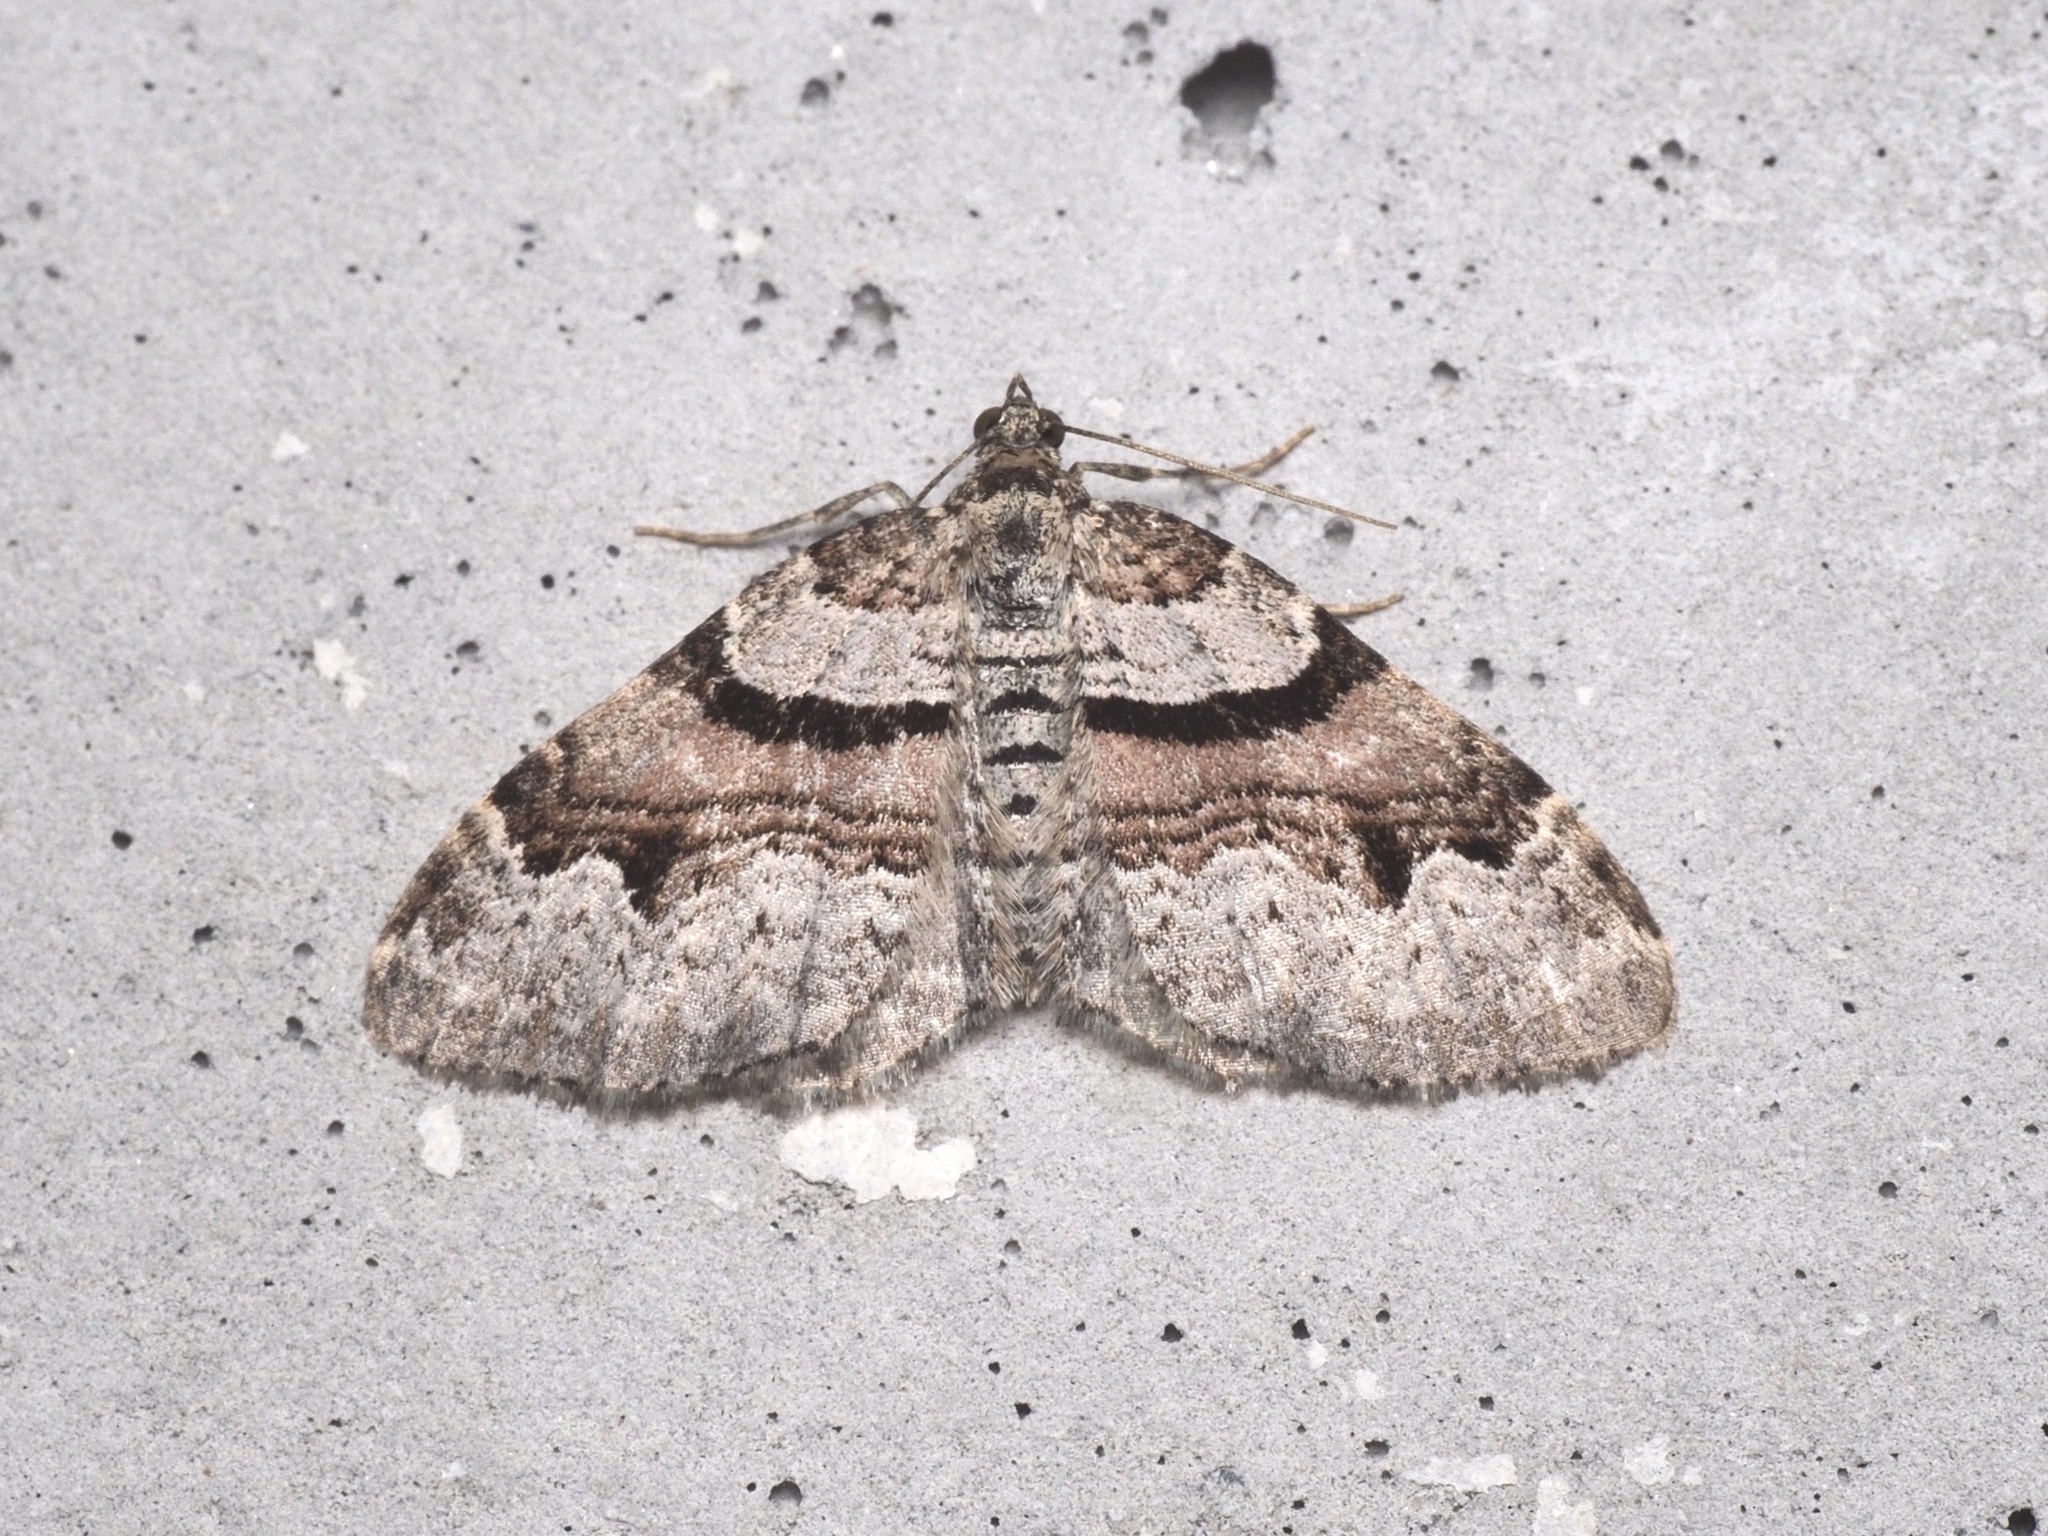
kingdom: Animalia
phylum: Arthropoda
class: Insecta
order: Lepidoptera
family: Geometridae
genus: Xanthorhoe
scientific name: Xanthorhoe designata
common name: Flame carpet
